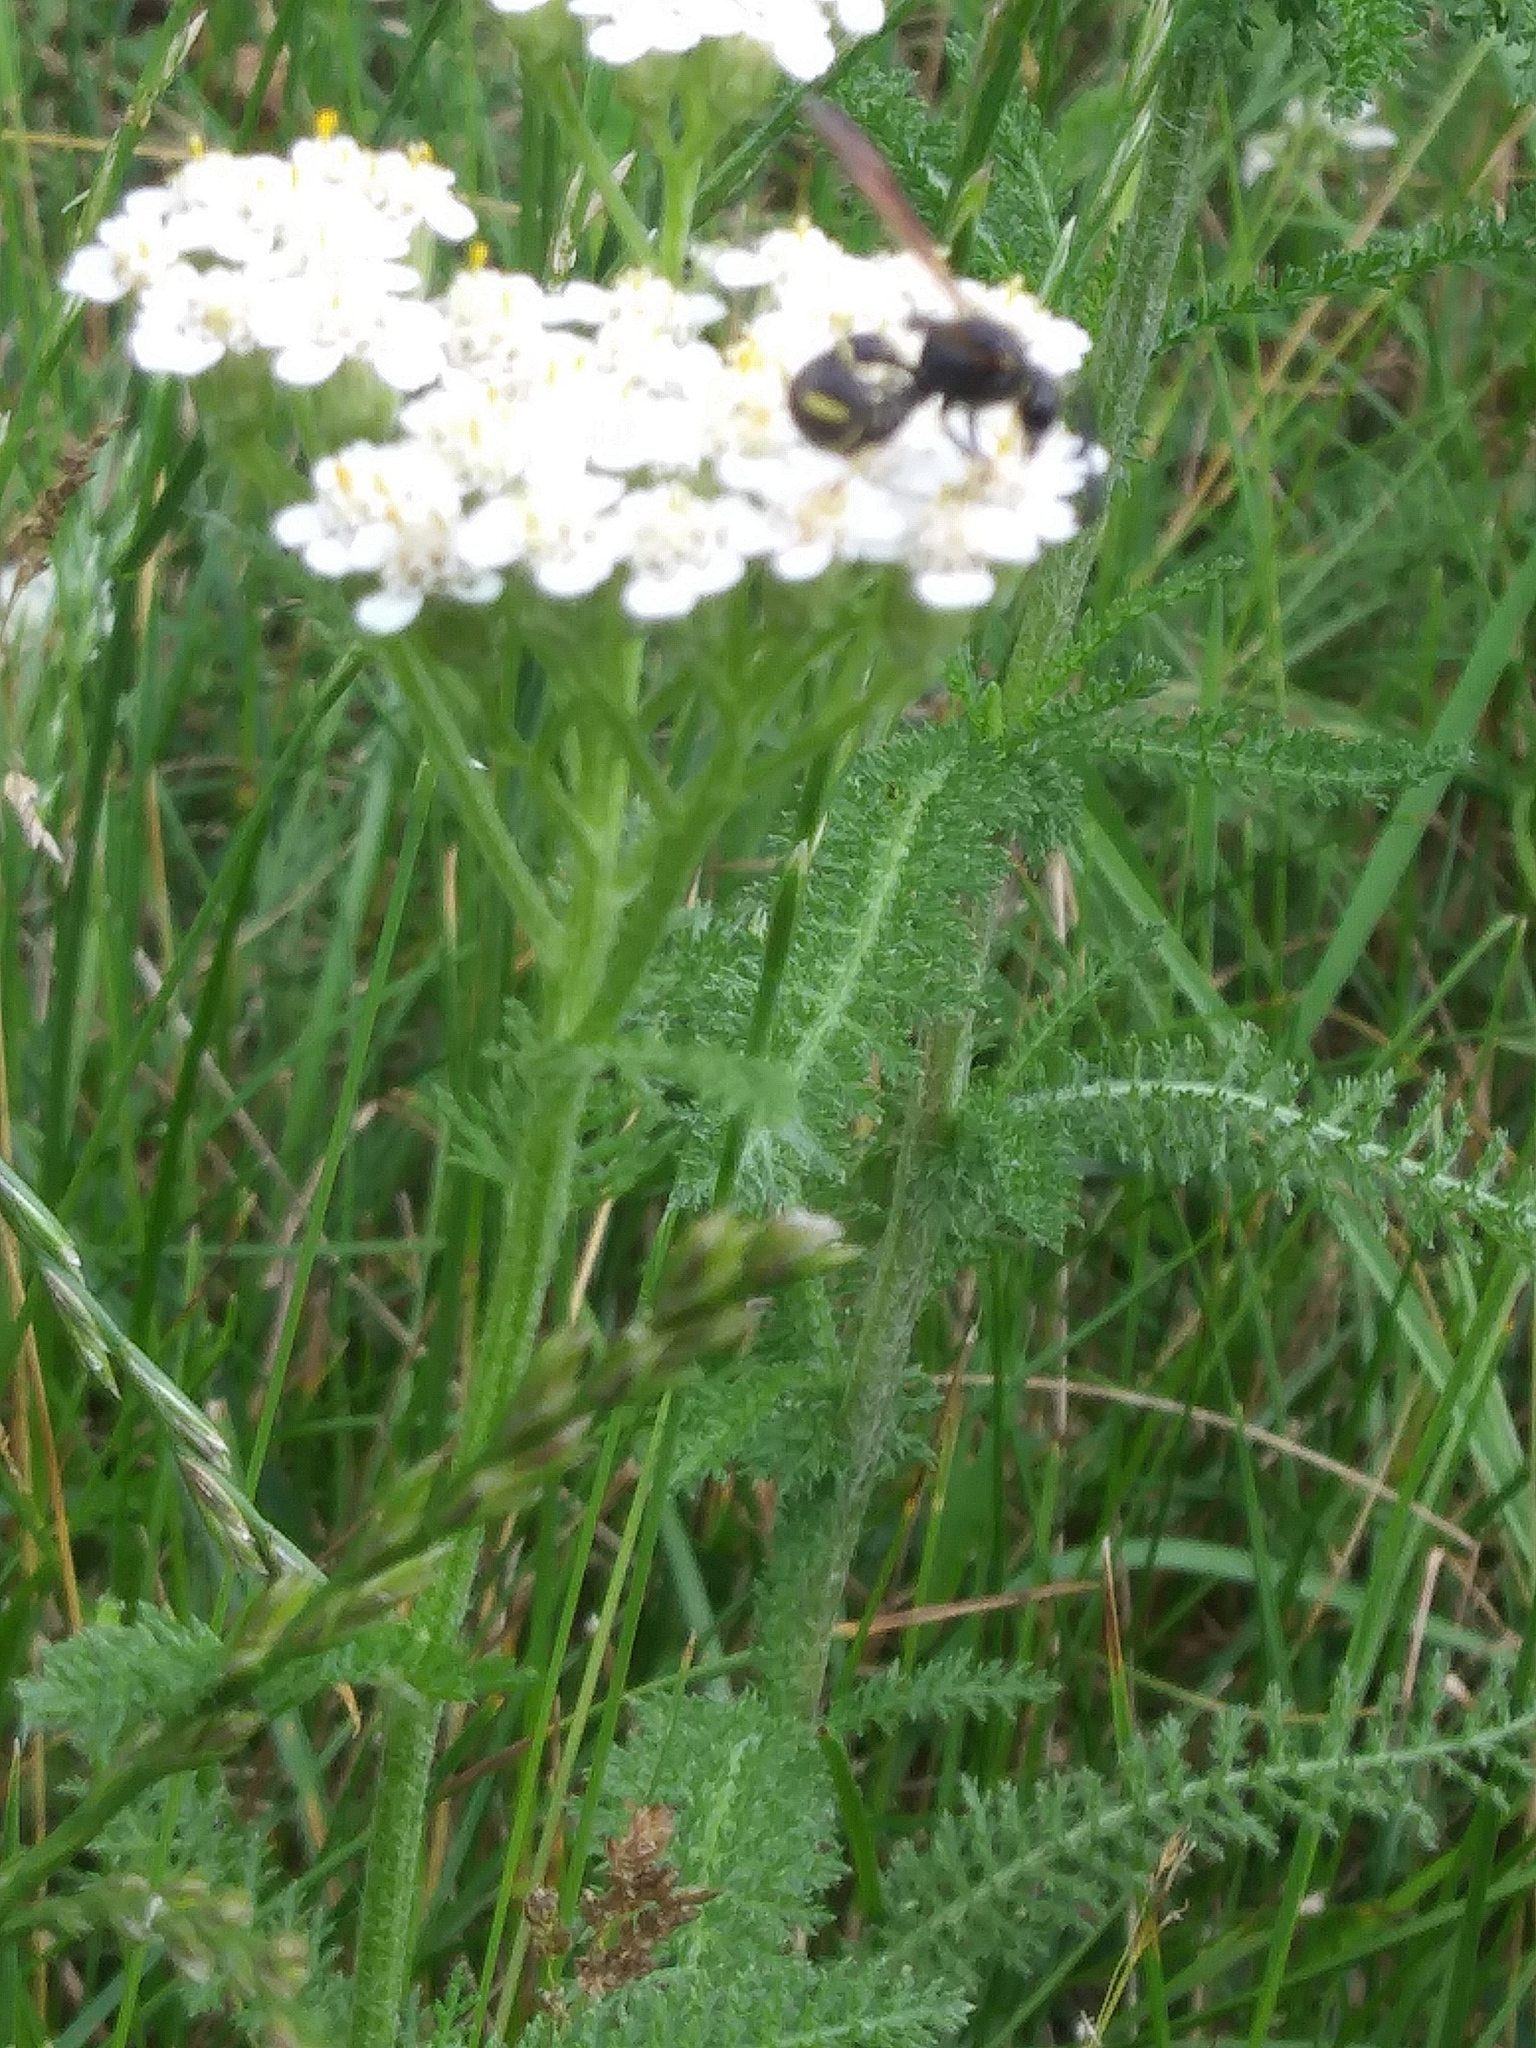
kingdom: Animalia
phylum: Arthropoda
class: Insecta
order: Hymenoptera
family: Vespidae
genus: Eumenes
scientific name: Eumenes
